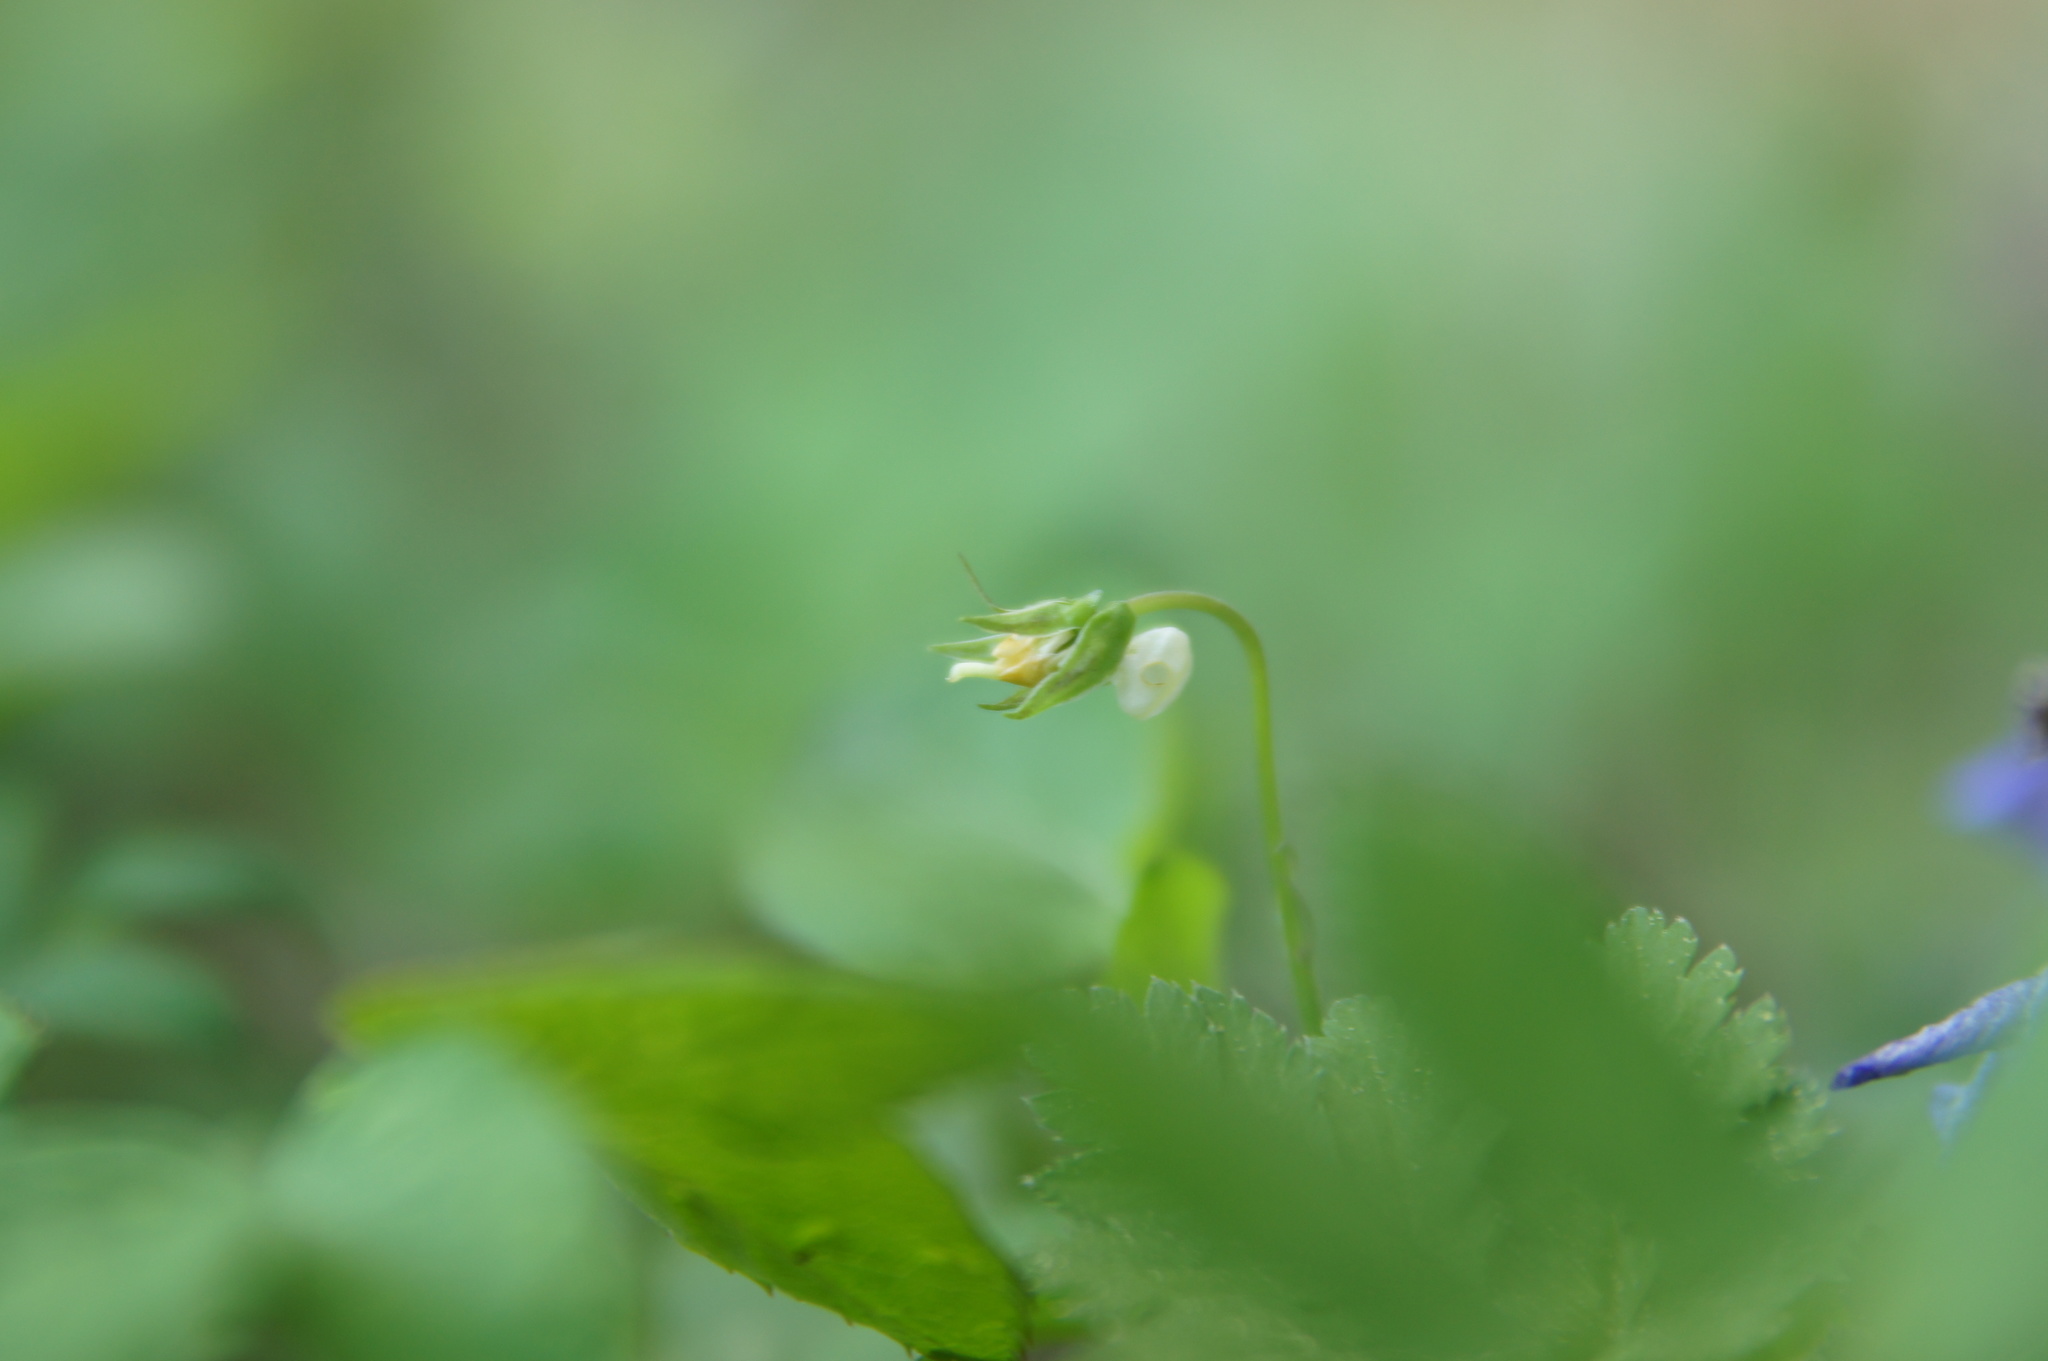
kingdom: Plantae
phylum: Tracheophyta
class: Magnoliopsida
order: Malpighiales
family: Violaceae
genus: Viola
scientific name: Viola riviniana
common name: Common dog-violet
